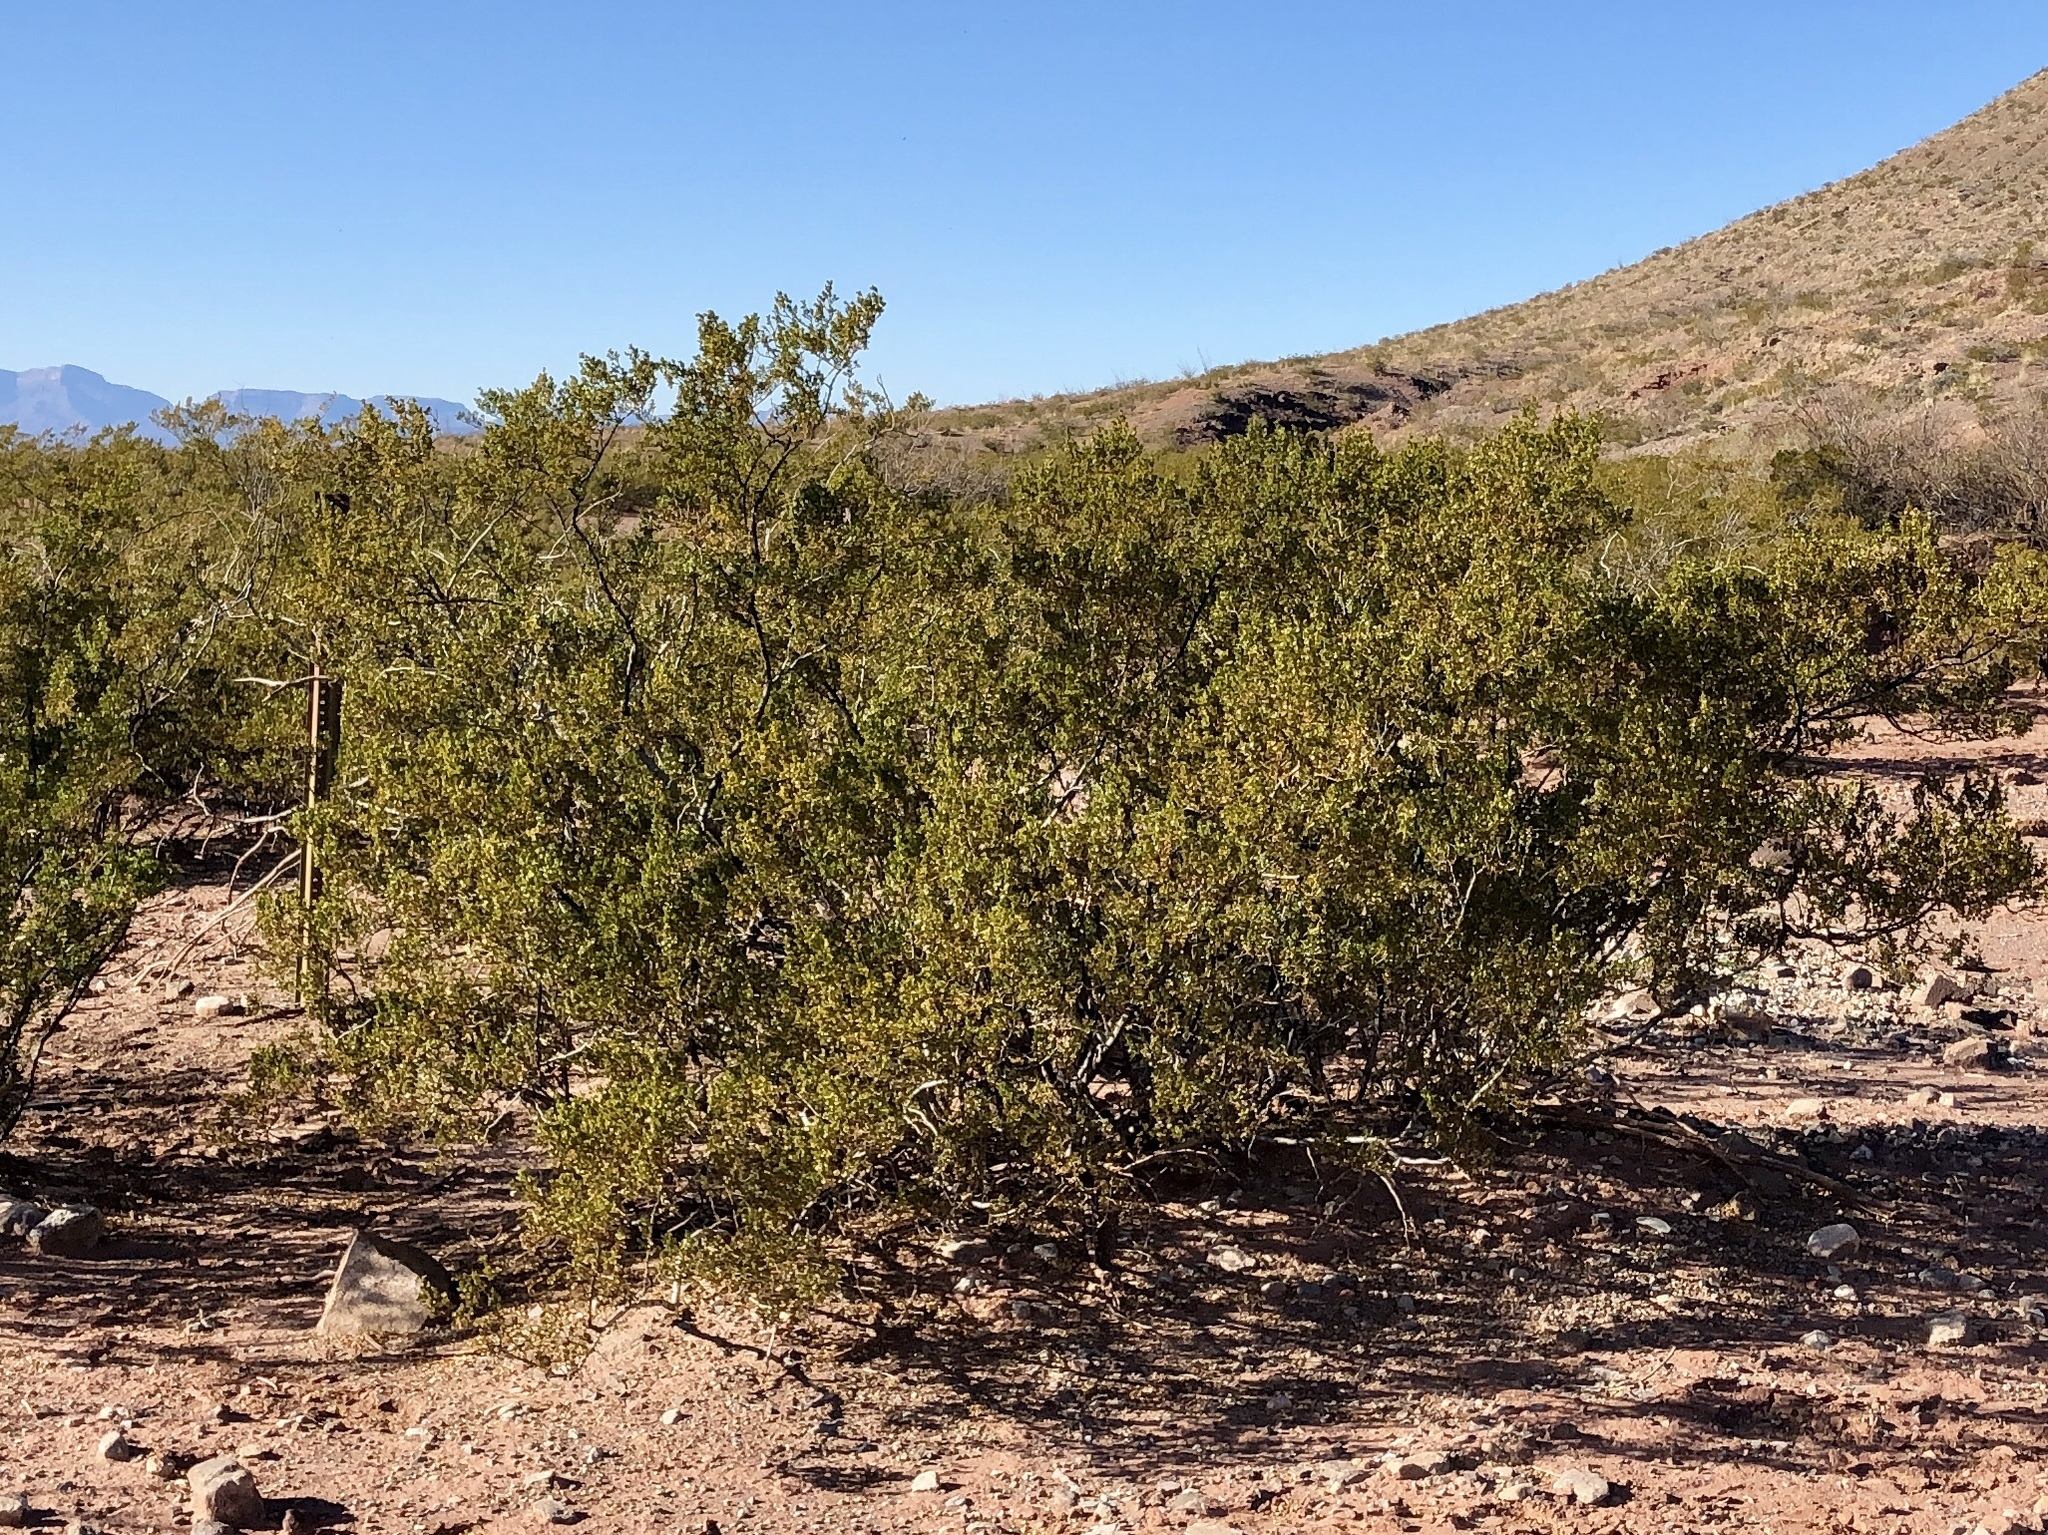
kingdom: Plantae
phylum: Tracheophyta
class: Magnoliopsida
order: Zygophyllales
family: Zygophyllaceae
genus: Larrea
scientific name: Larrea tridentata
